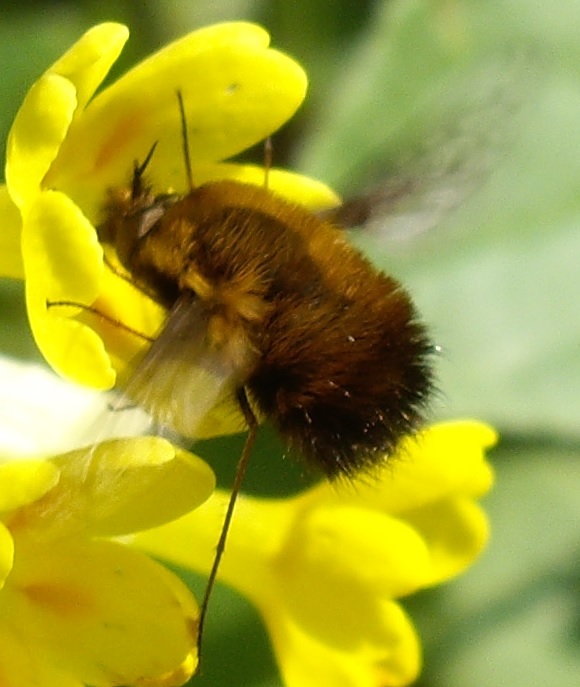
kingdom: Animalia
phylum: Arthropoda
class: Insecta
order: Diptera
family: Bombyliidae
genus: Bombylius
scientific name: Bombylius discolor
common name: Dotted bee-fly
